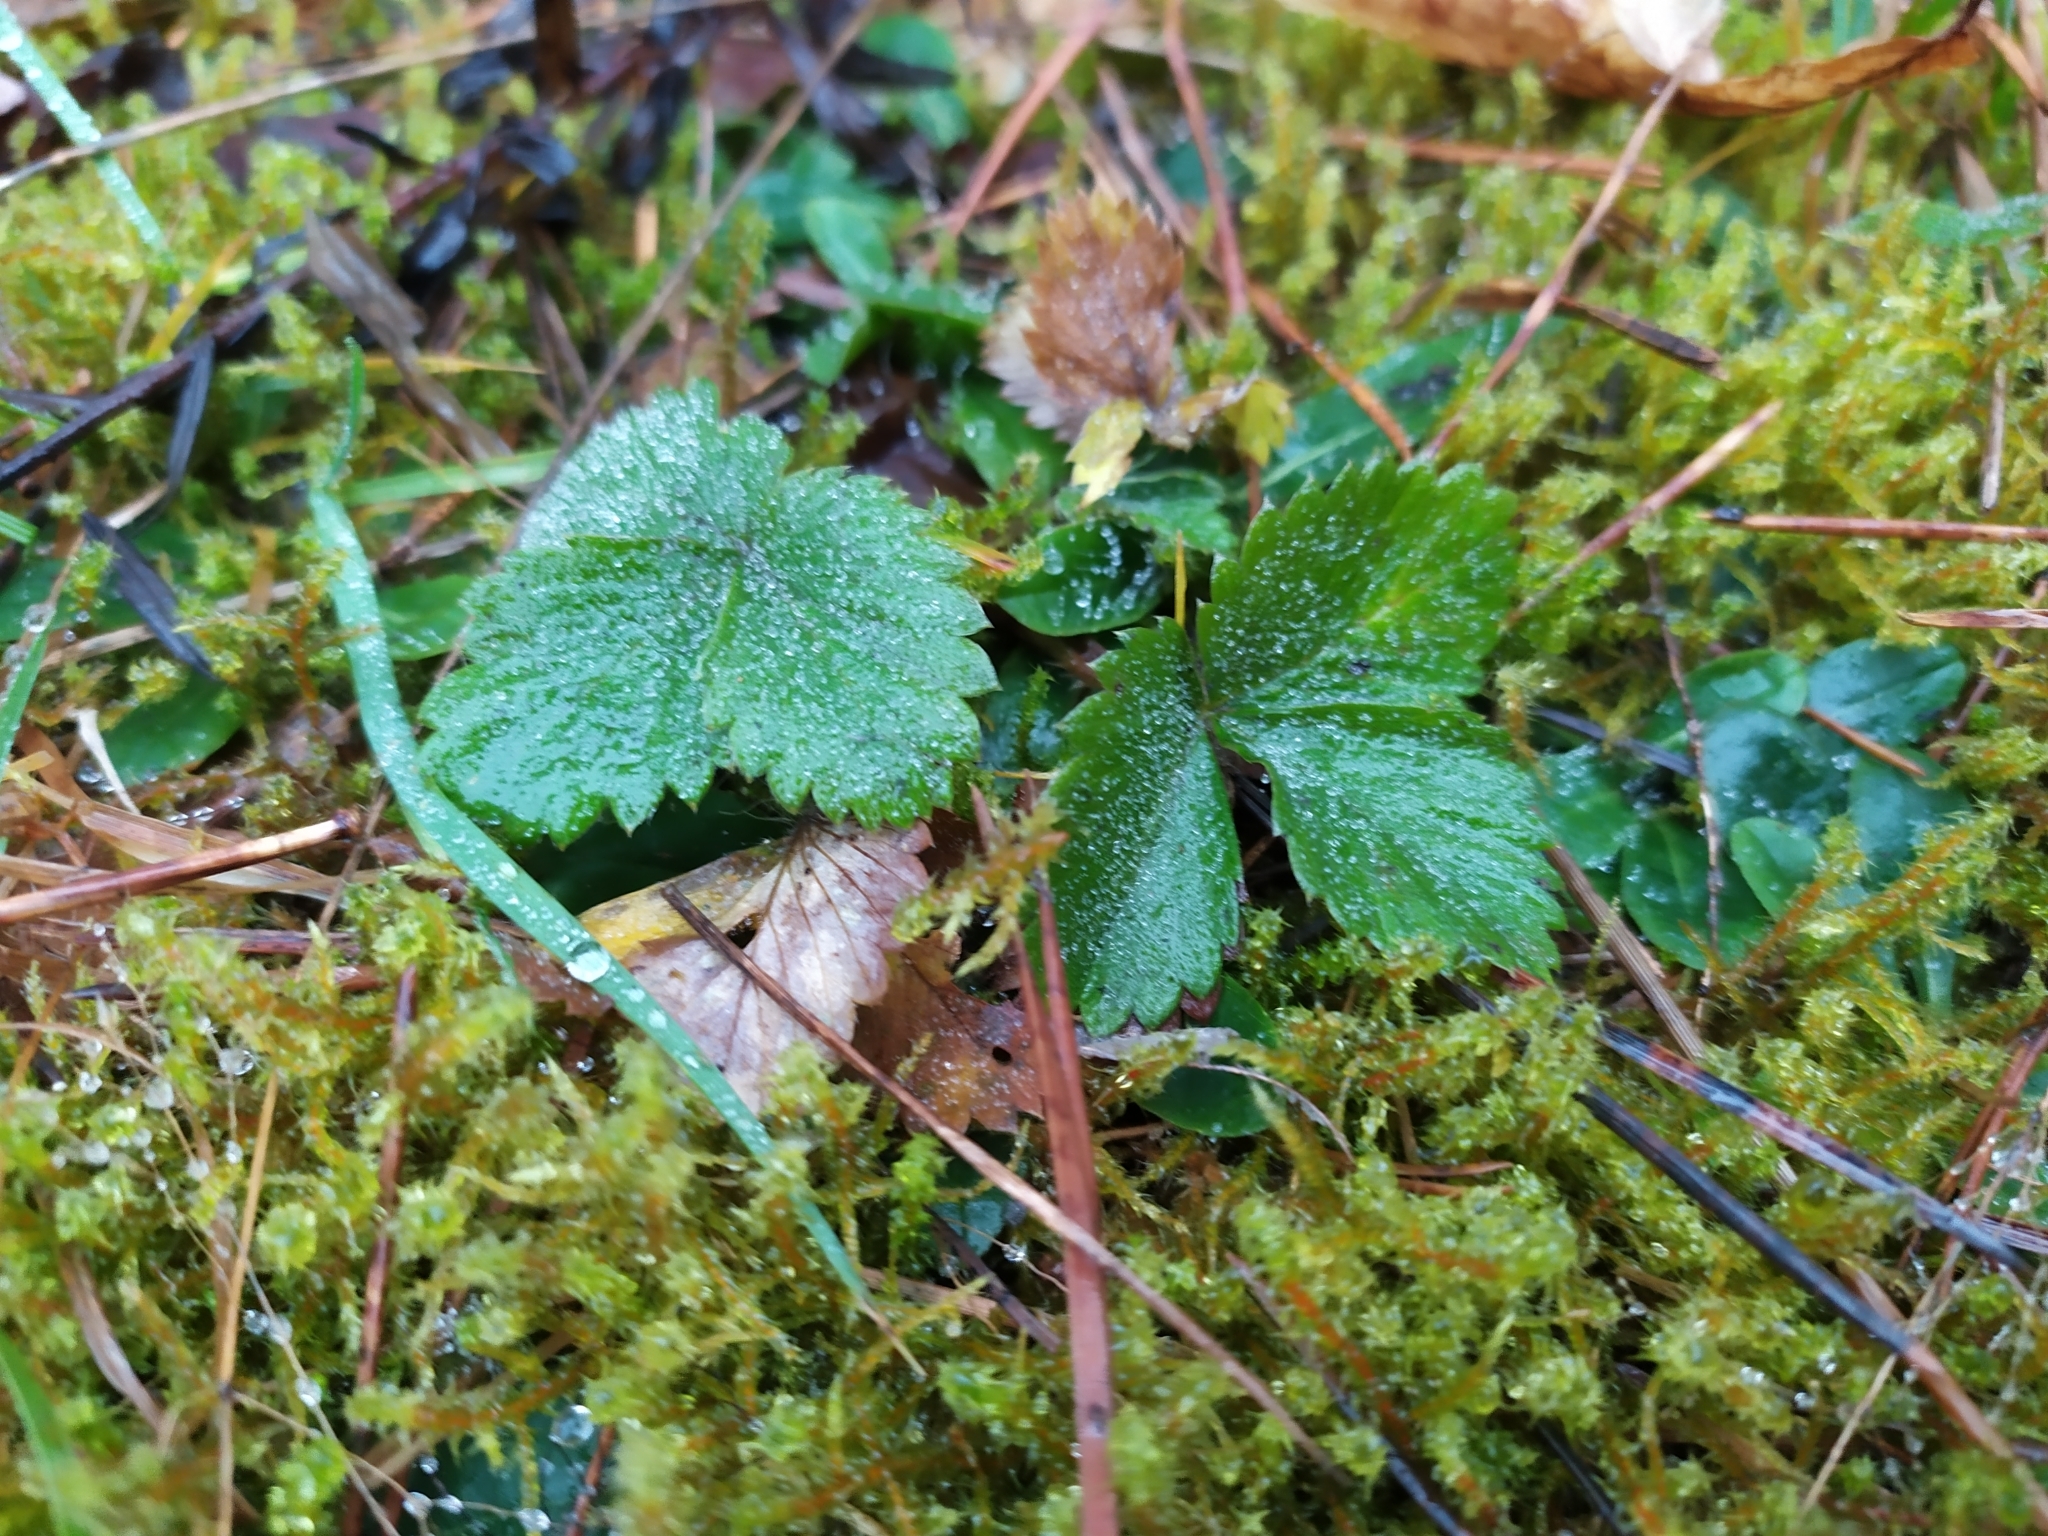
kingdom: Plantae
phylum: Tracheophyta
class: Magnoliopsida
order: Rosales
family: Rosaceae
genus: Fragaria
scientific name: Fragaria vesca
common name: Wild strawberry
